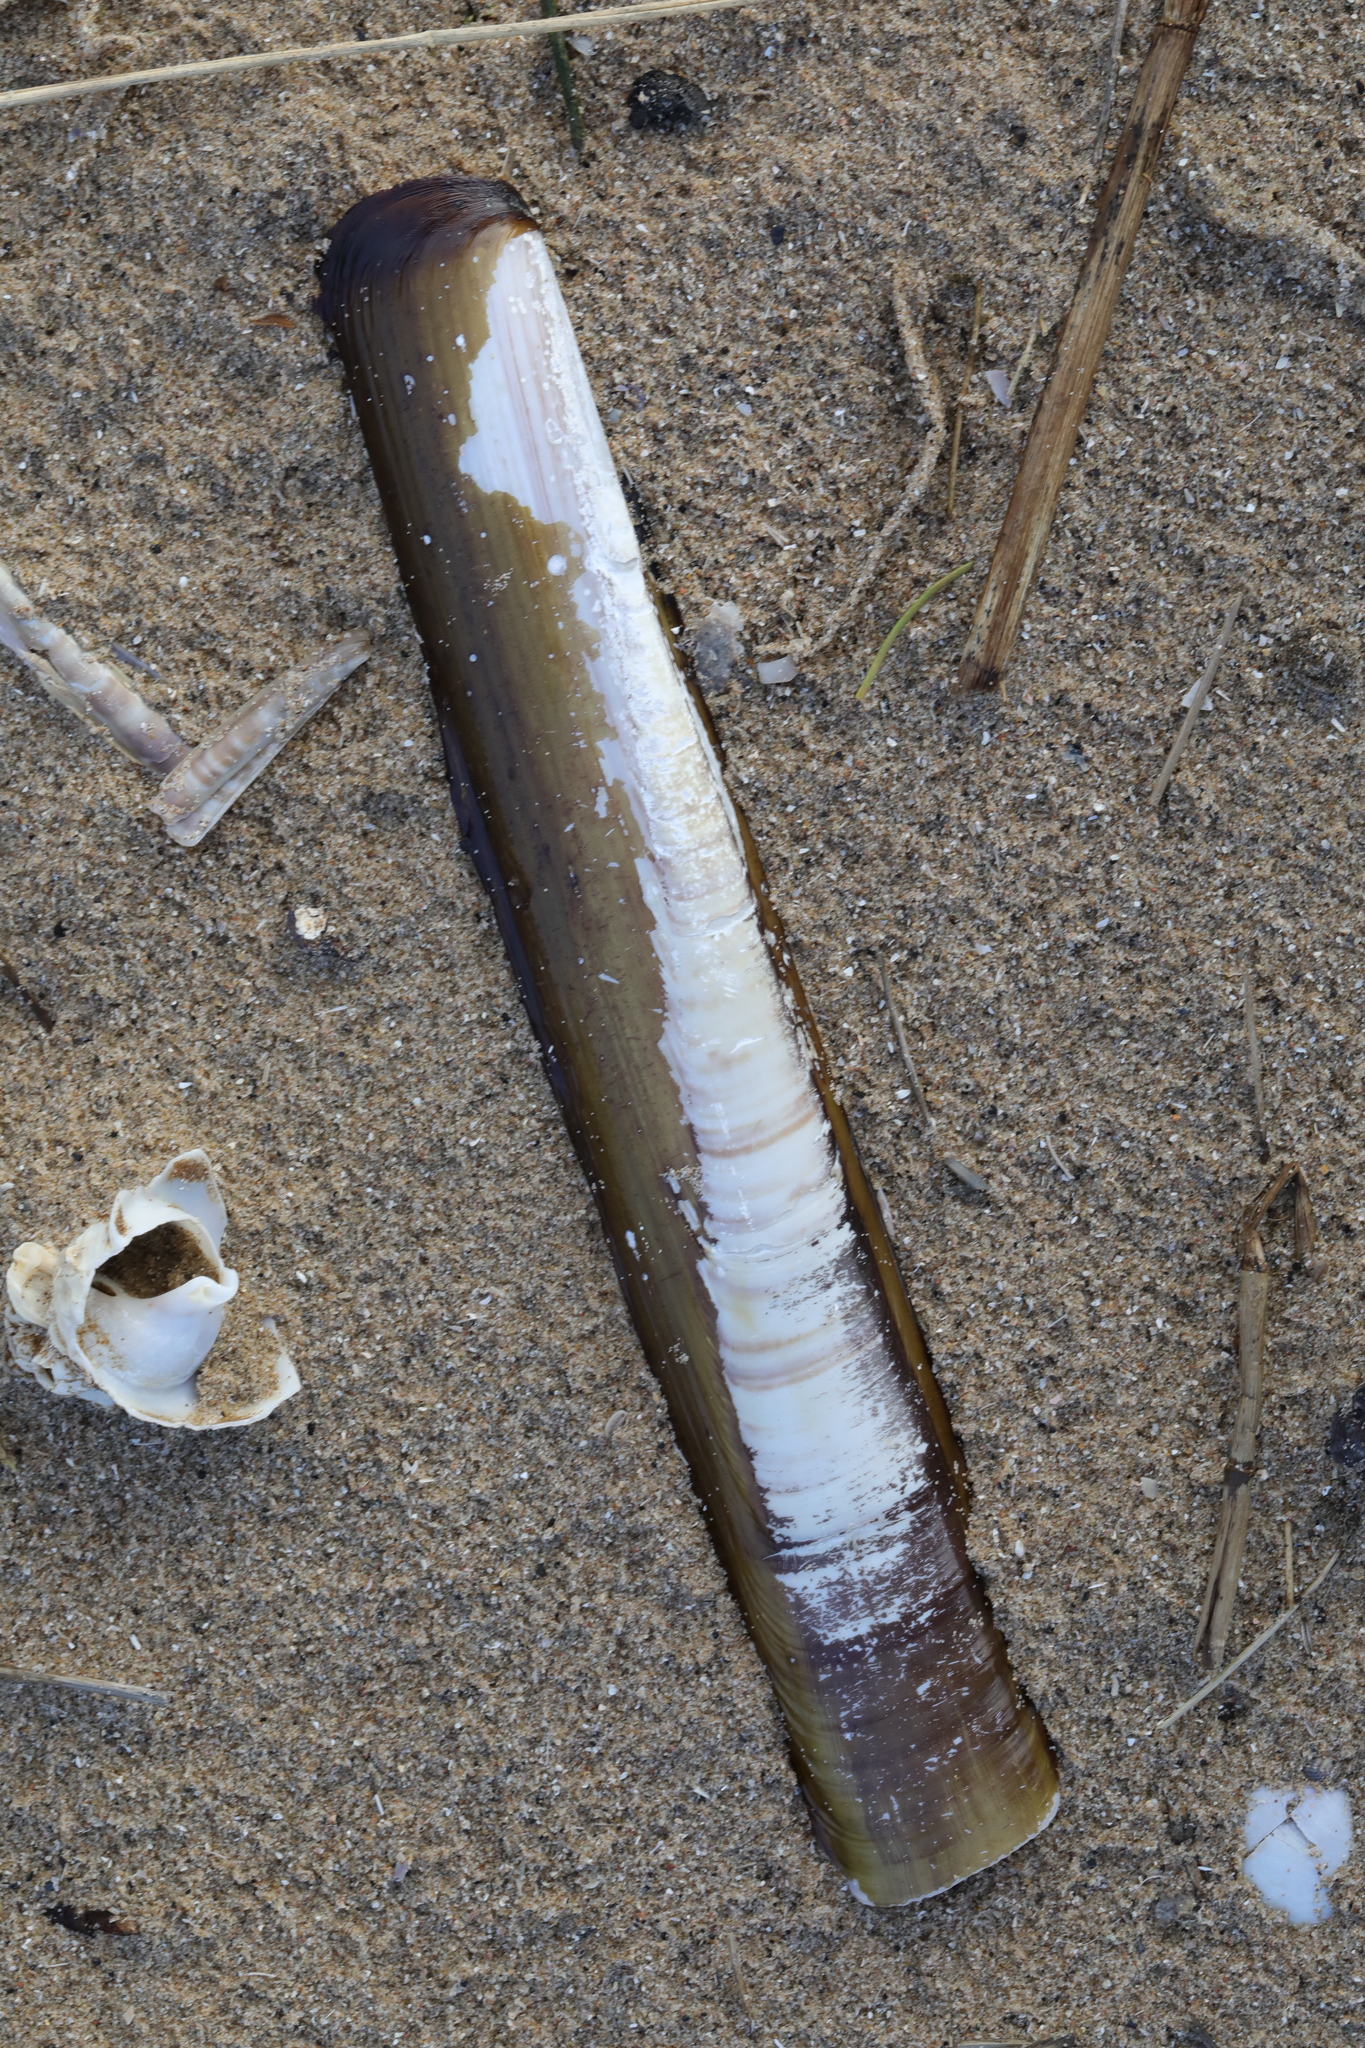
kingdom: Animalia
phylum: Mollusca
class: Bivalvia
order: Adapedonta
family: Pharidae
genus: Ensis
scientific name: Ensis siliqua
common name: Pod razor shell
